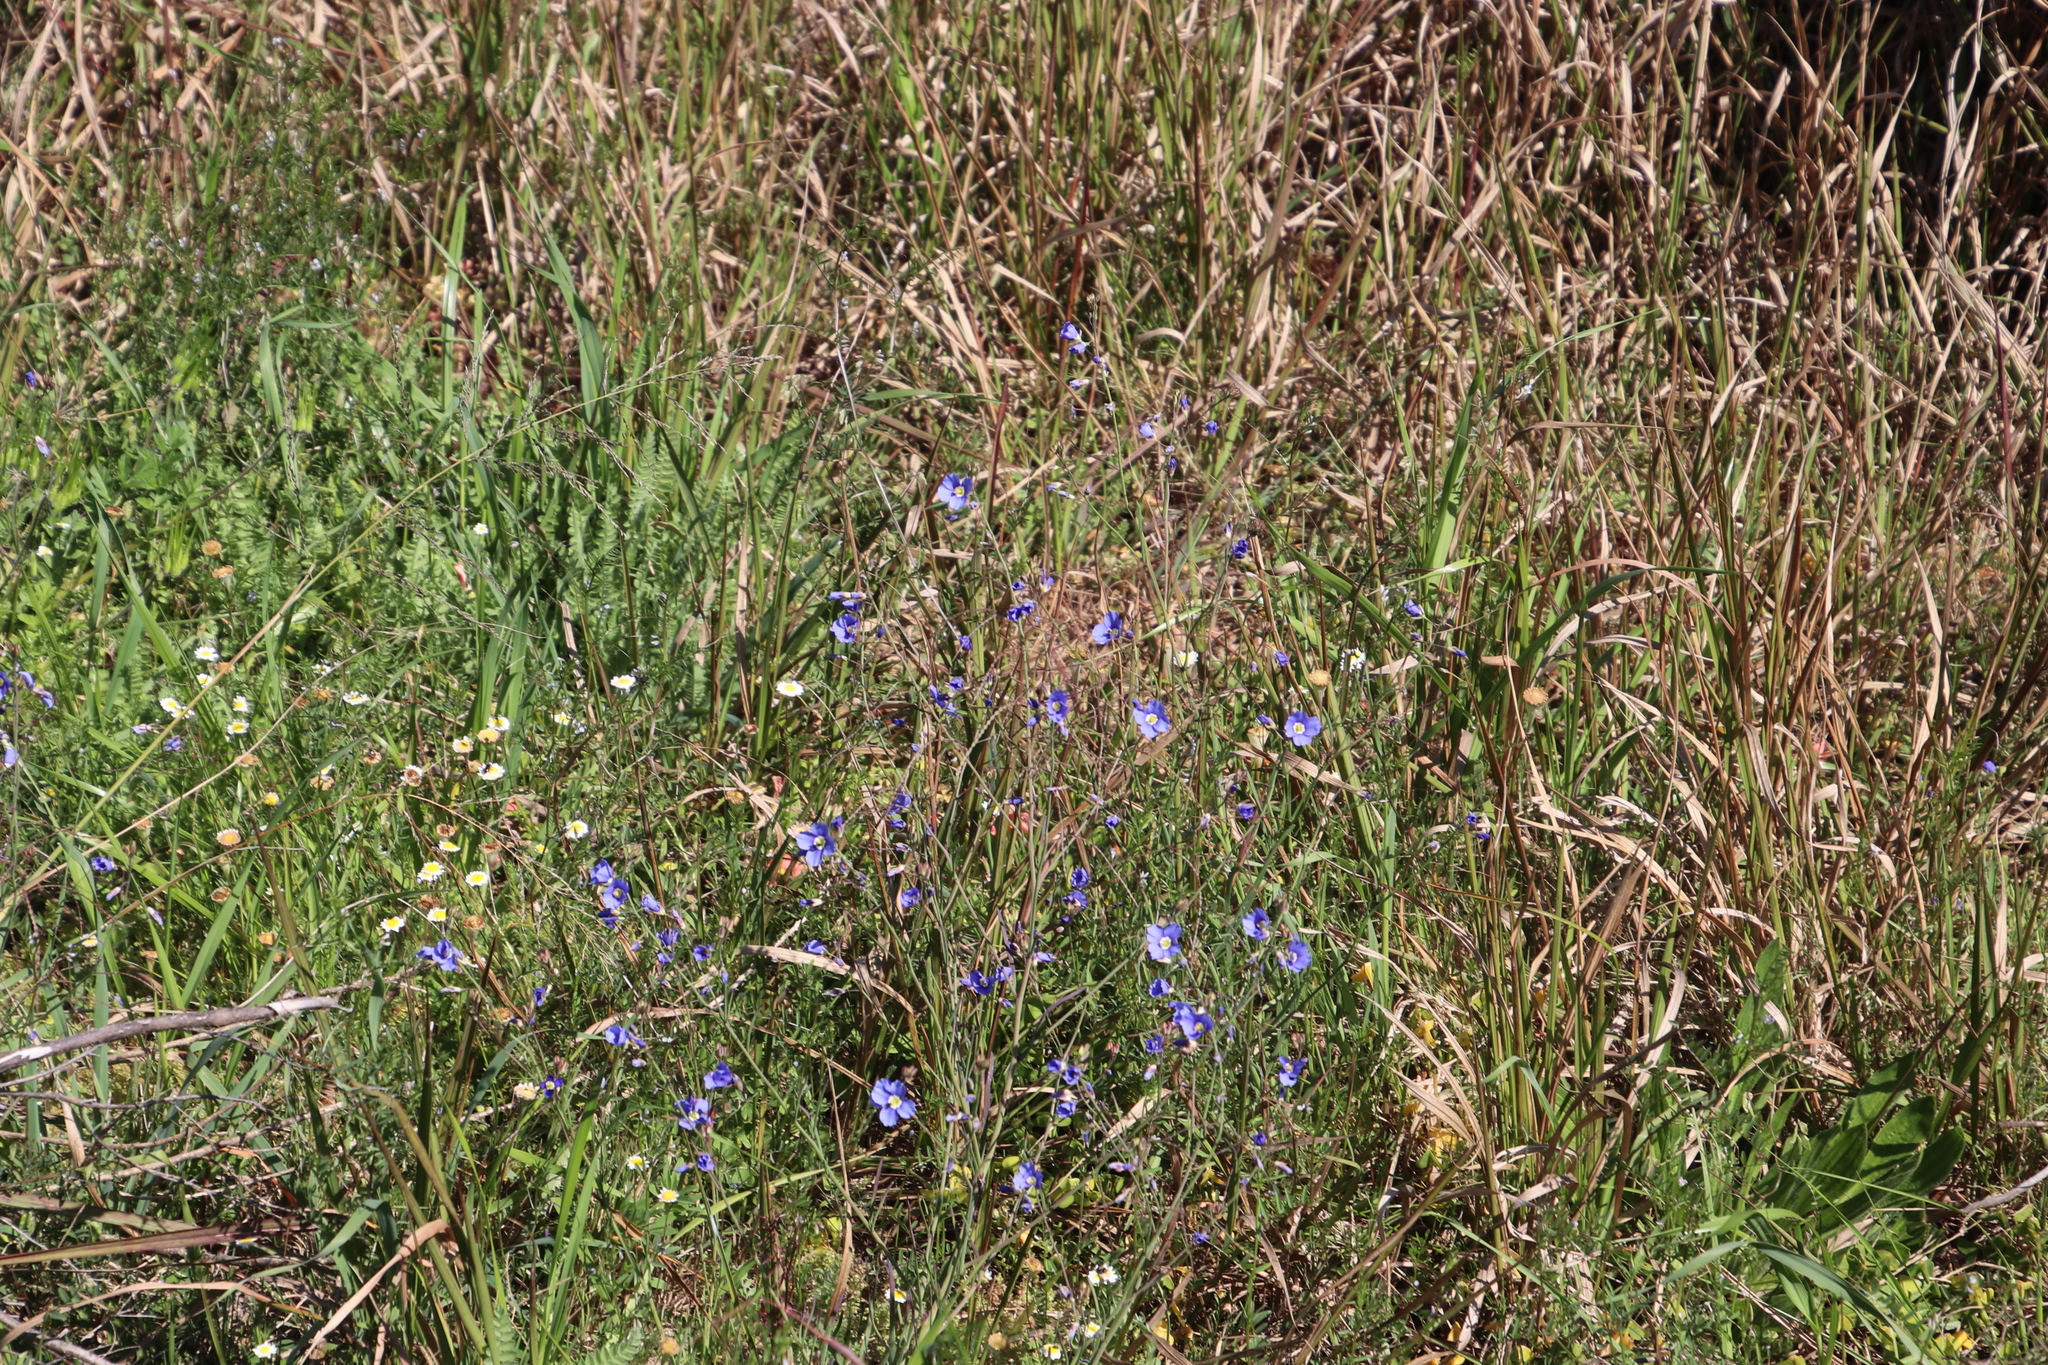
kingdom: Plantae
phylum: Tracheophyta
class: Magnoliopsida
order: Brassicales
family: Brassicaceae
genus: Heliophila
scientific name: Heliophila coronopifolia
